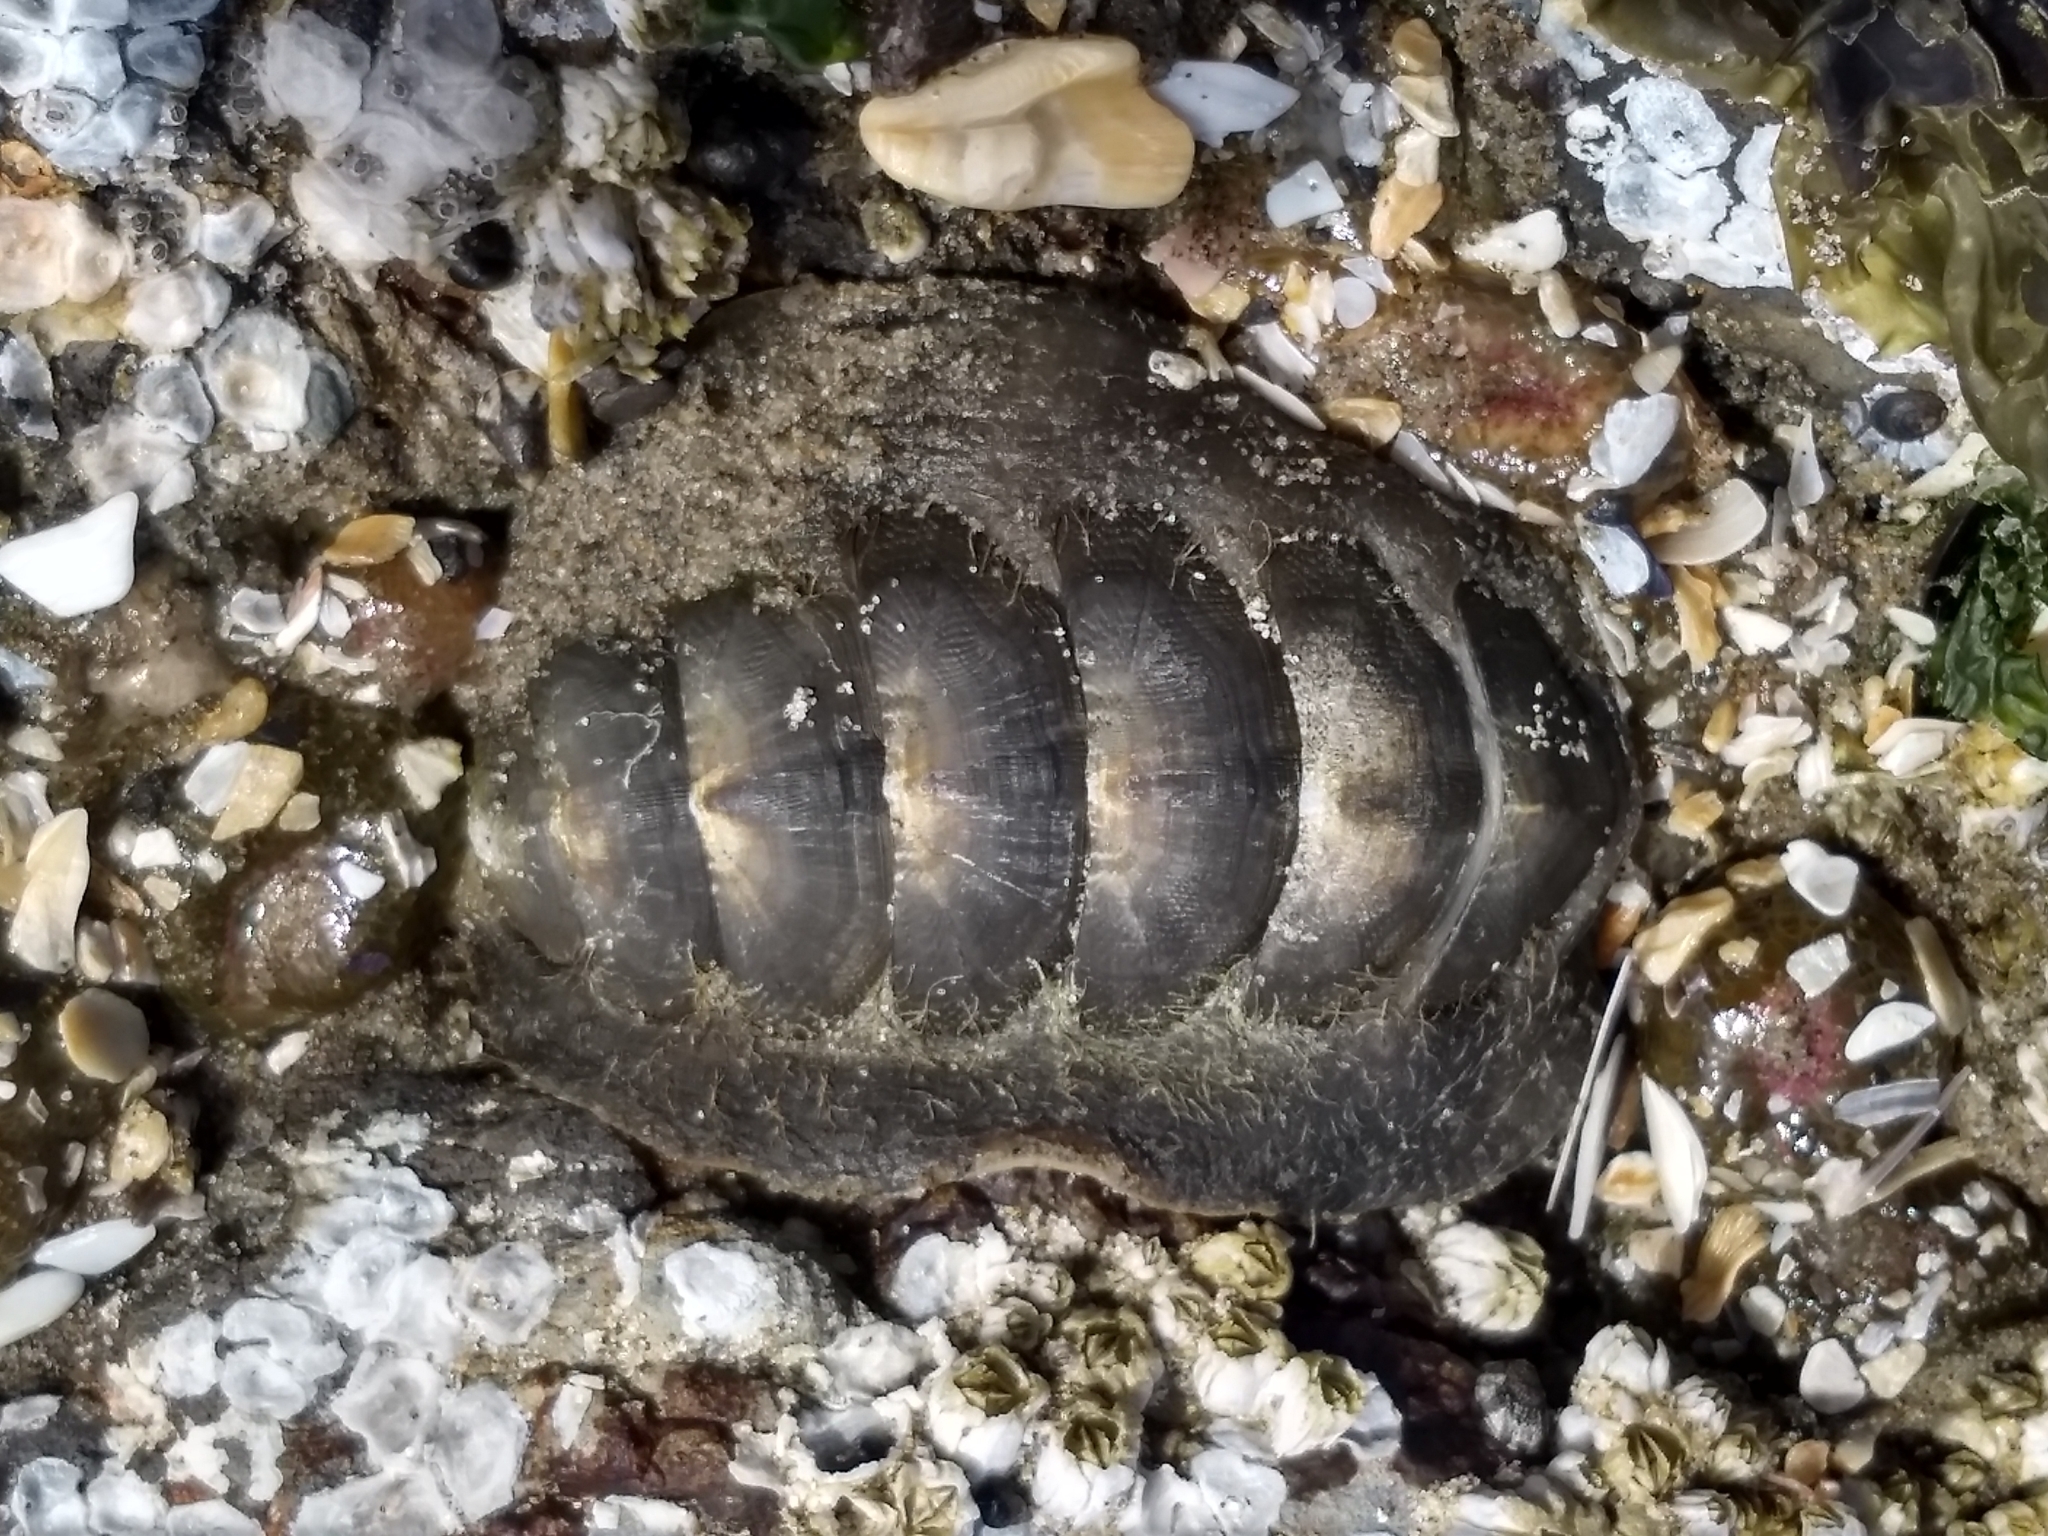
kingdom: Animalia
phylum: Mollusca
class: Polyplacophora
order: Chitonida
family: Mopaliidae
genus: Mopalia
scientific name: Mopalia hindsii
